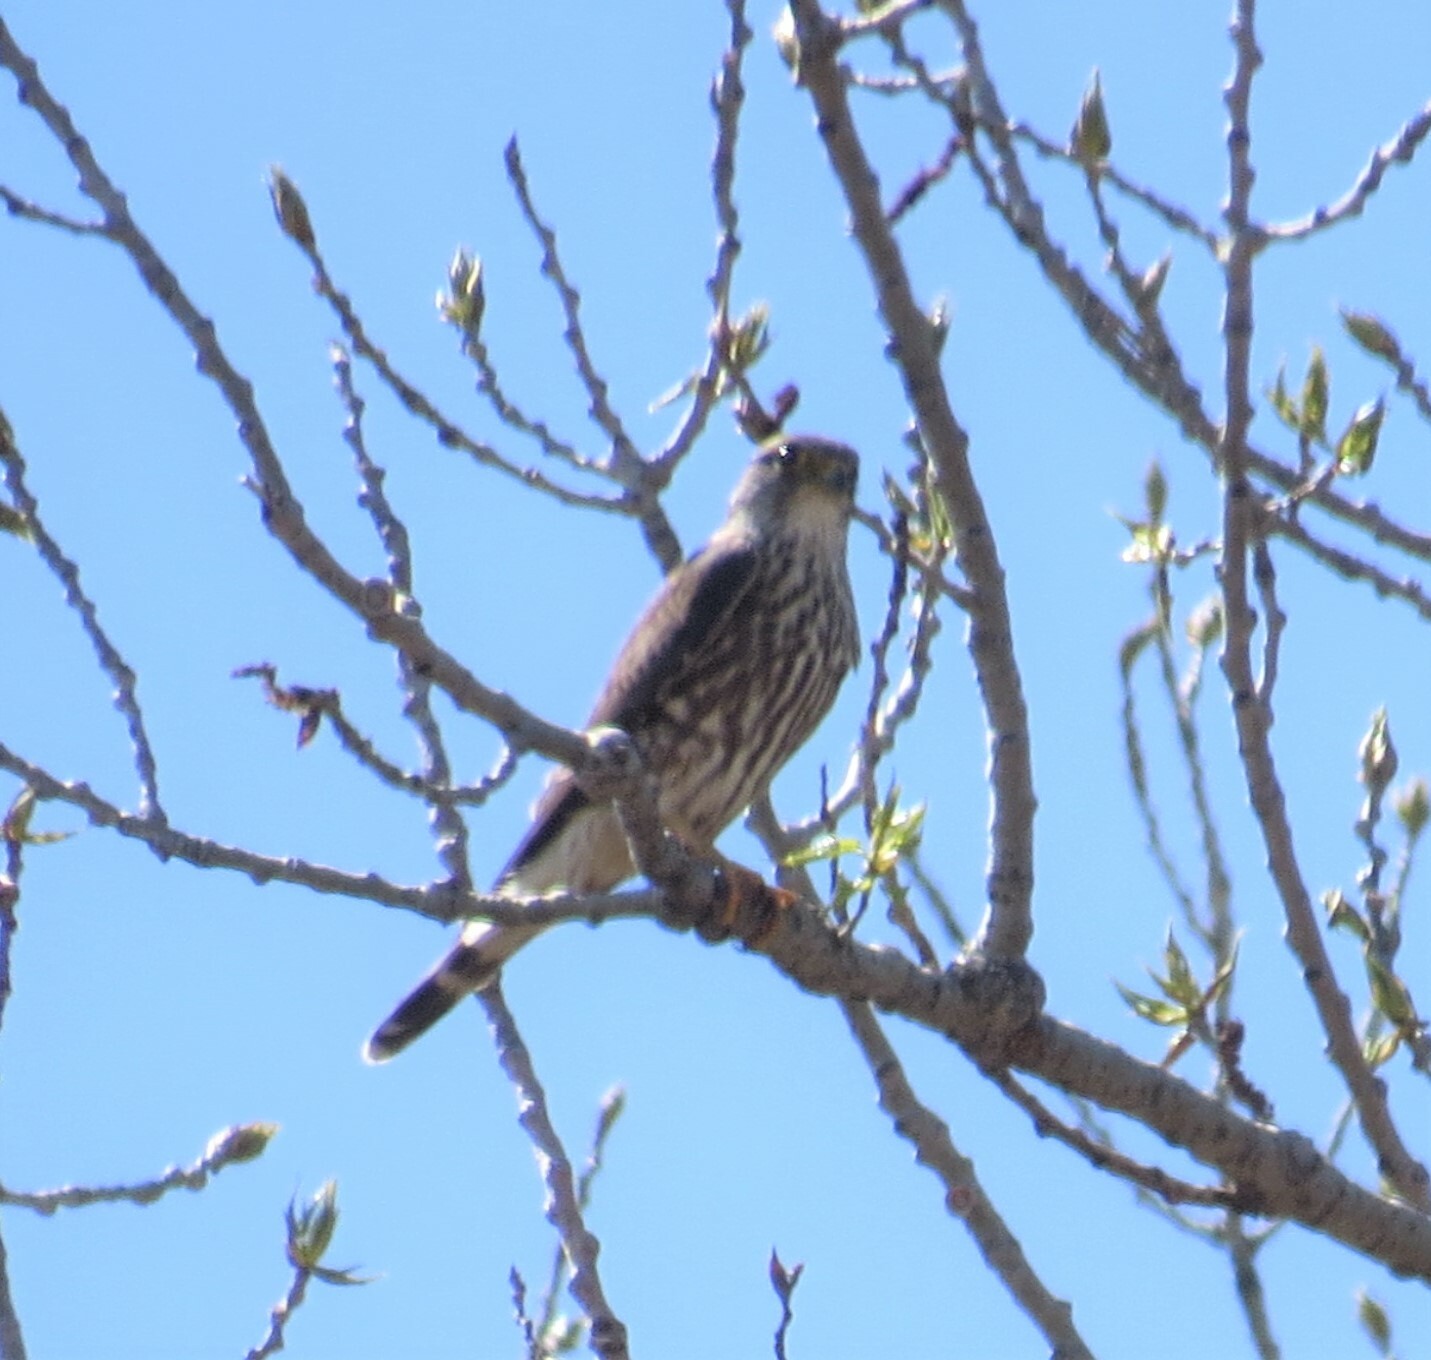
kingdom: Animalia
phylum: Chordata
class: Aves
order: Falconiformes
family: Falconidae
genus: Falco
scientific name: Falco columbarius
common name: Merlin
